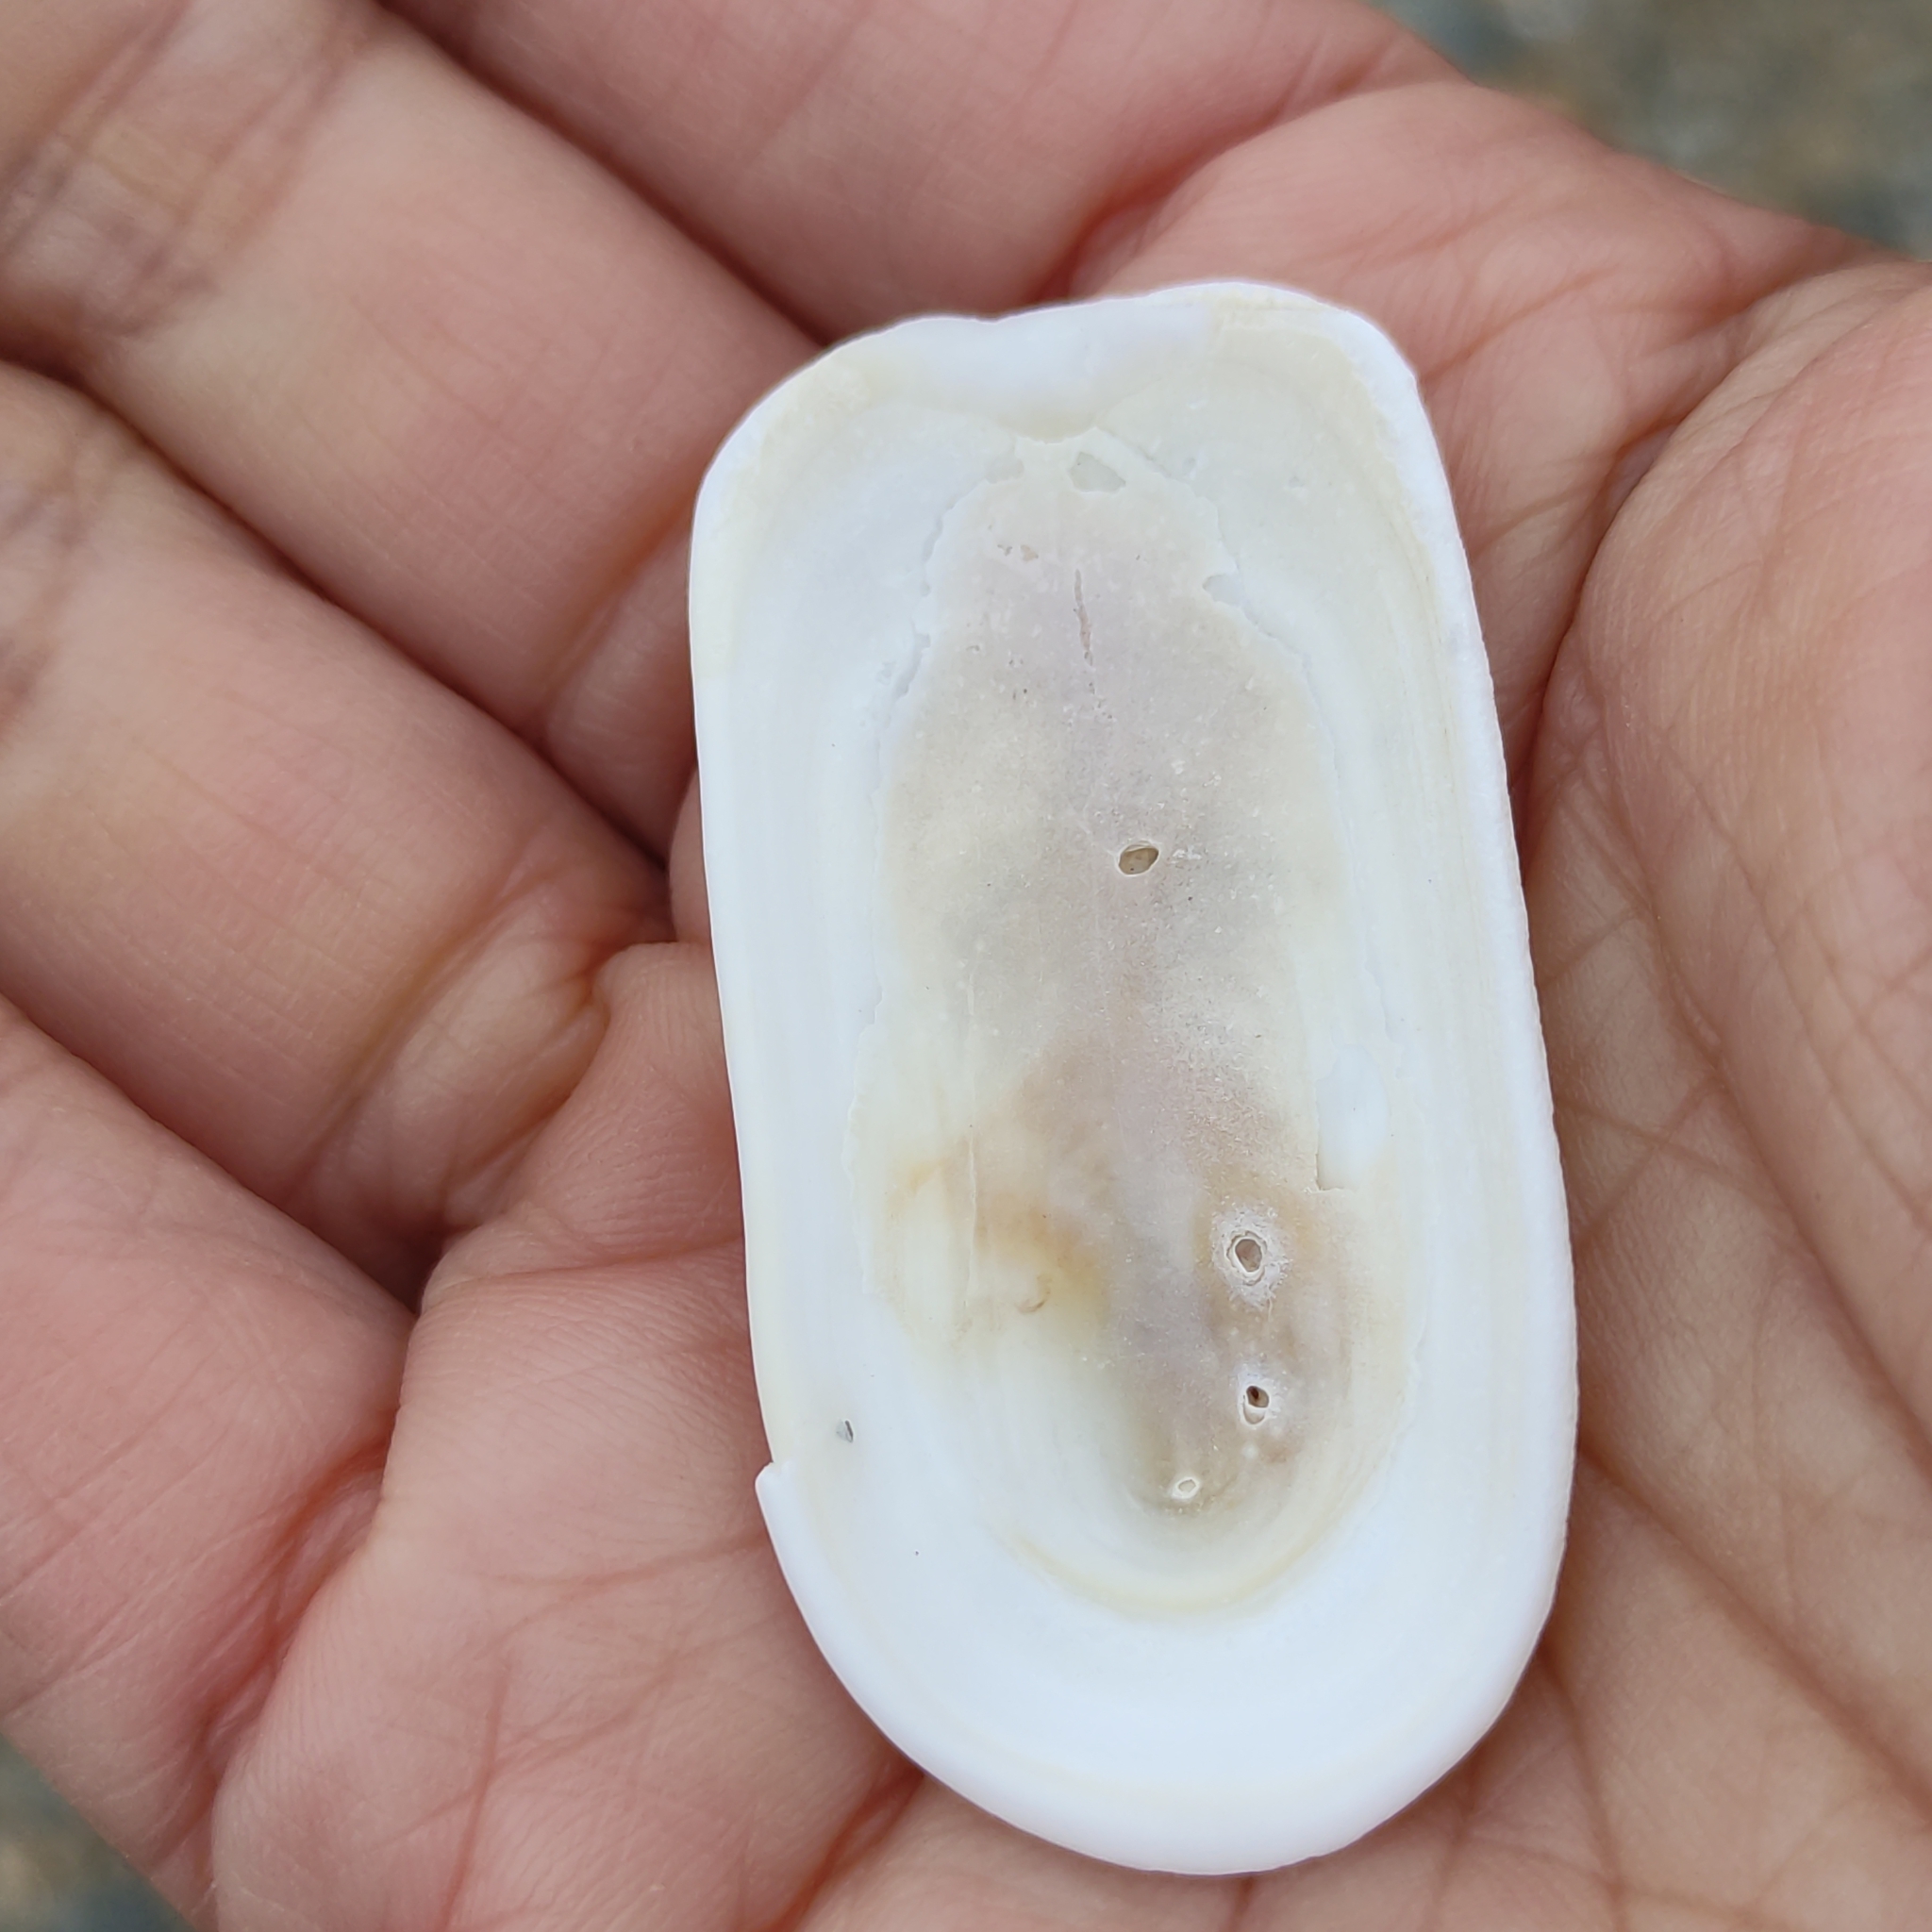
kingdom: Animalia
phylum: Mollusca
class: Gastropoda
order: Lepetellida
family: Fissurellidae
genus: Scutus
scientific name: Scutus breviculus
